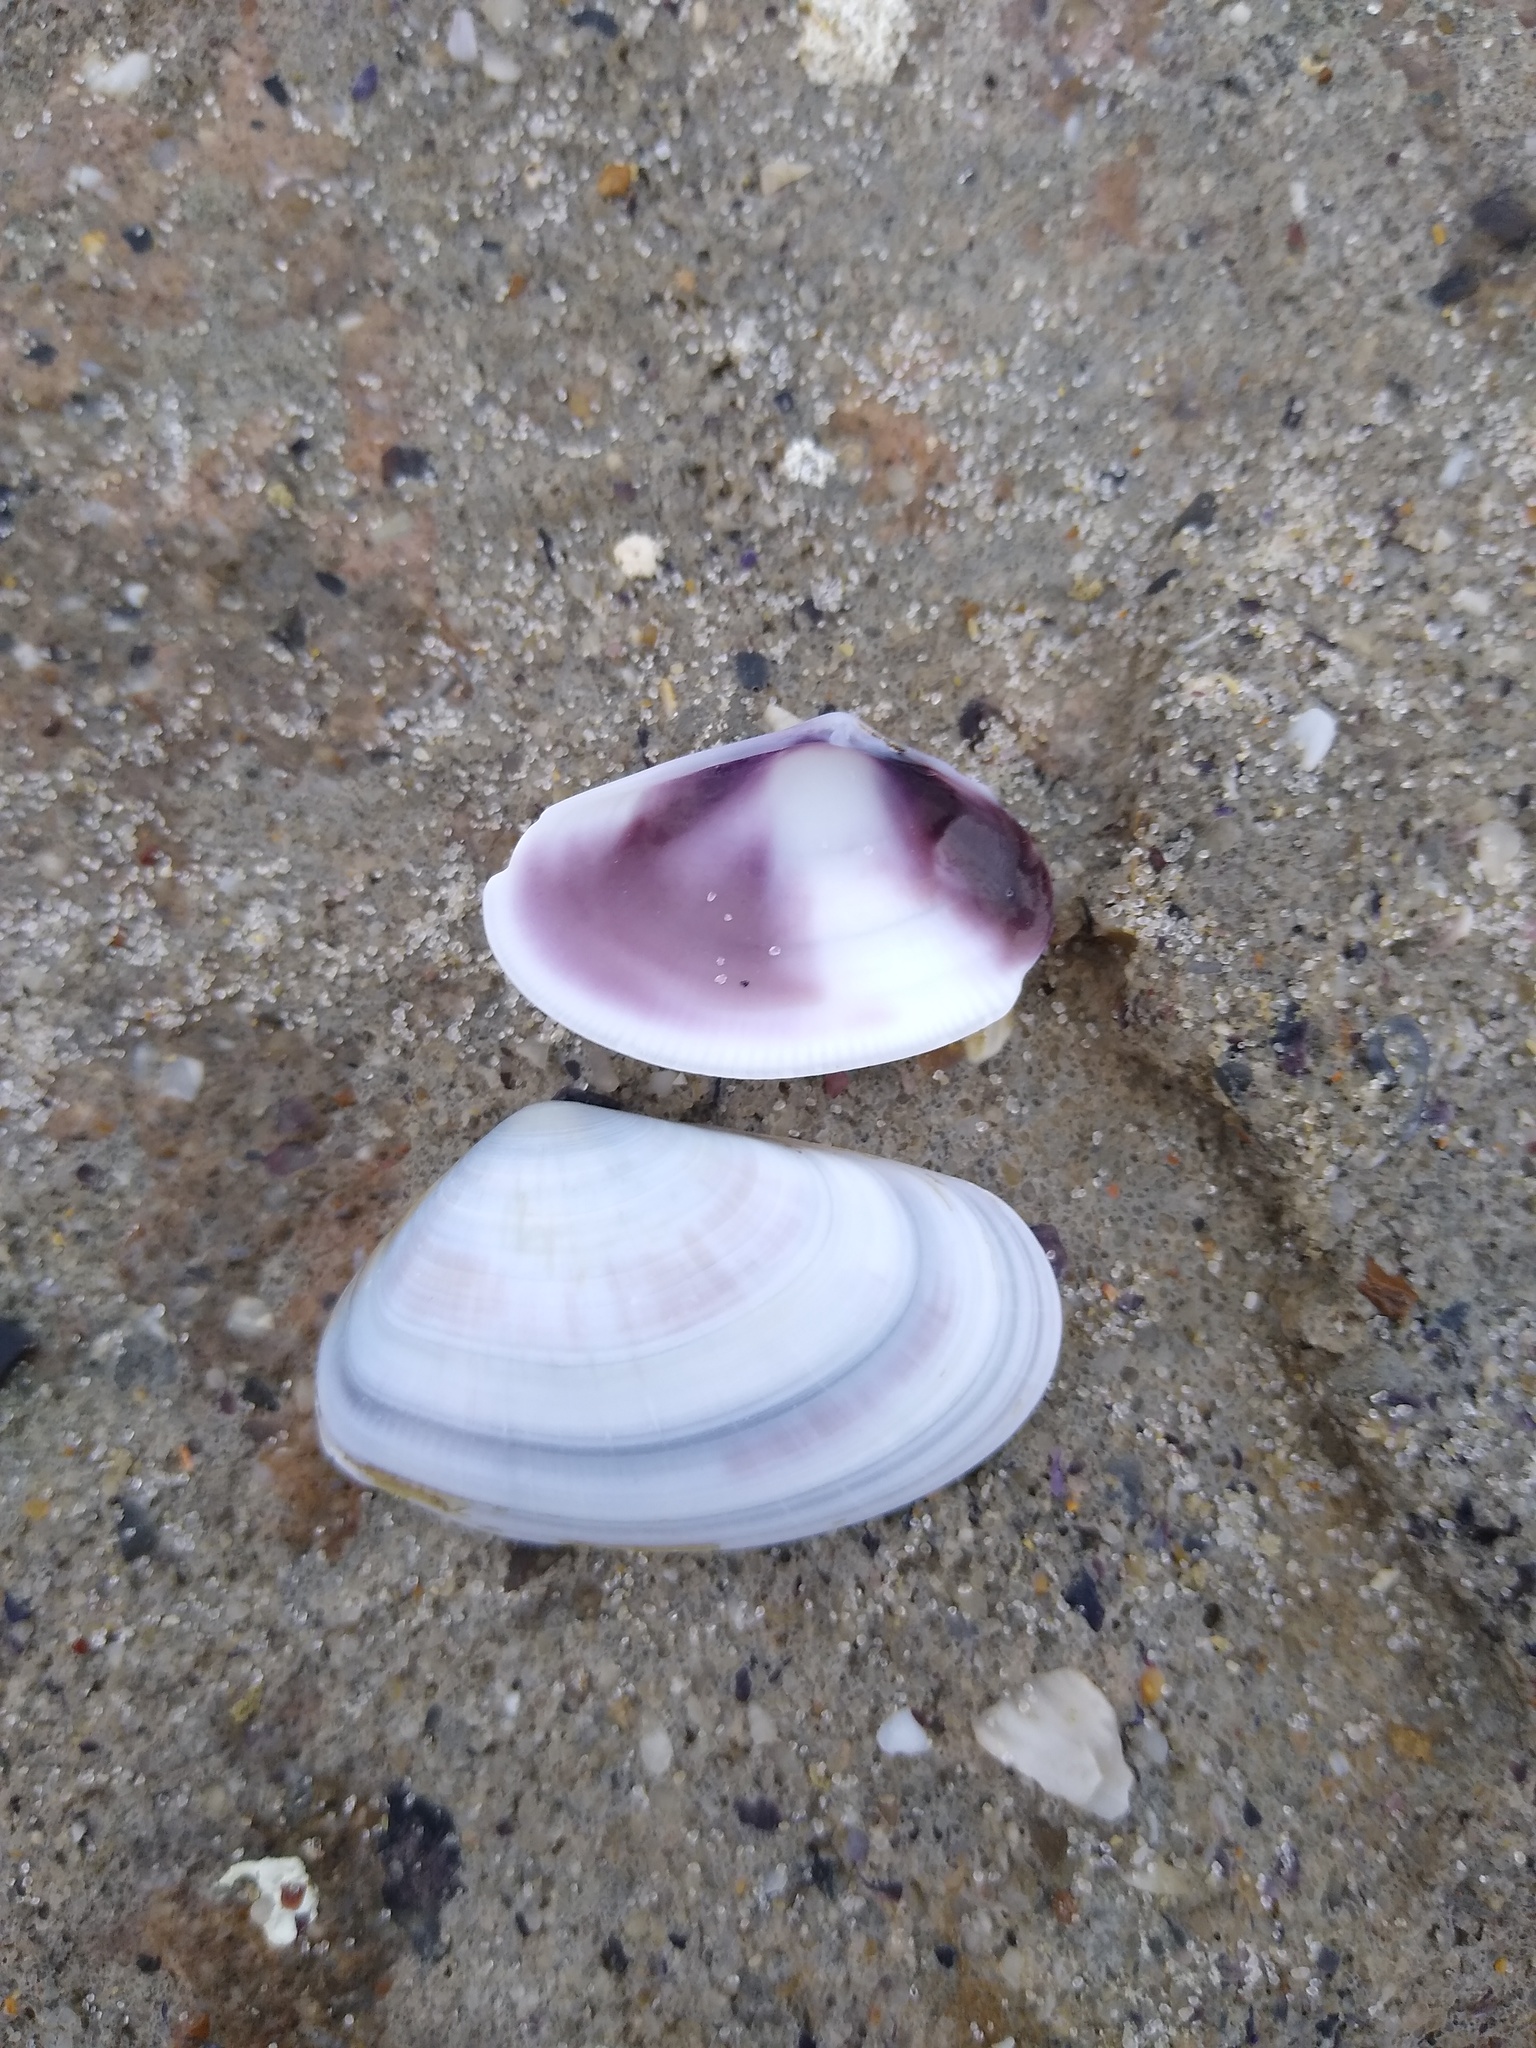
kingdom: Animalia
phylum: Mollusca
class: Bivalvia
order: Cardiida
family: Donacidae
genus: Donax
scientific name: Donax trunculus
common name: Truncate donax
